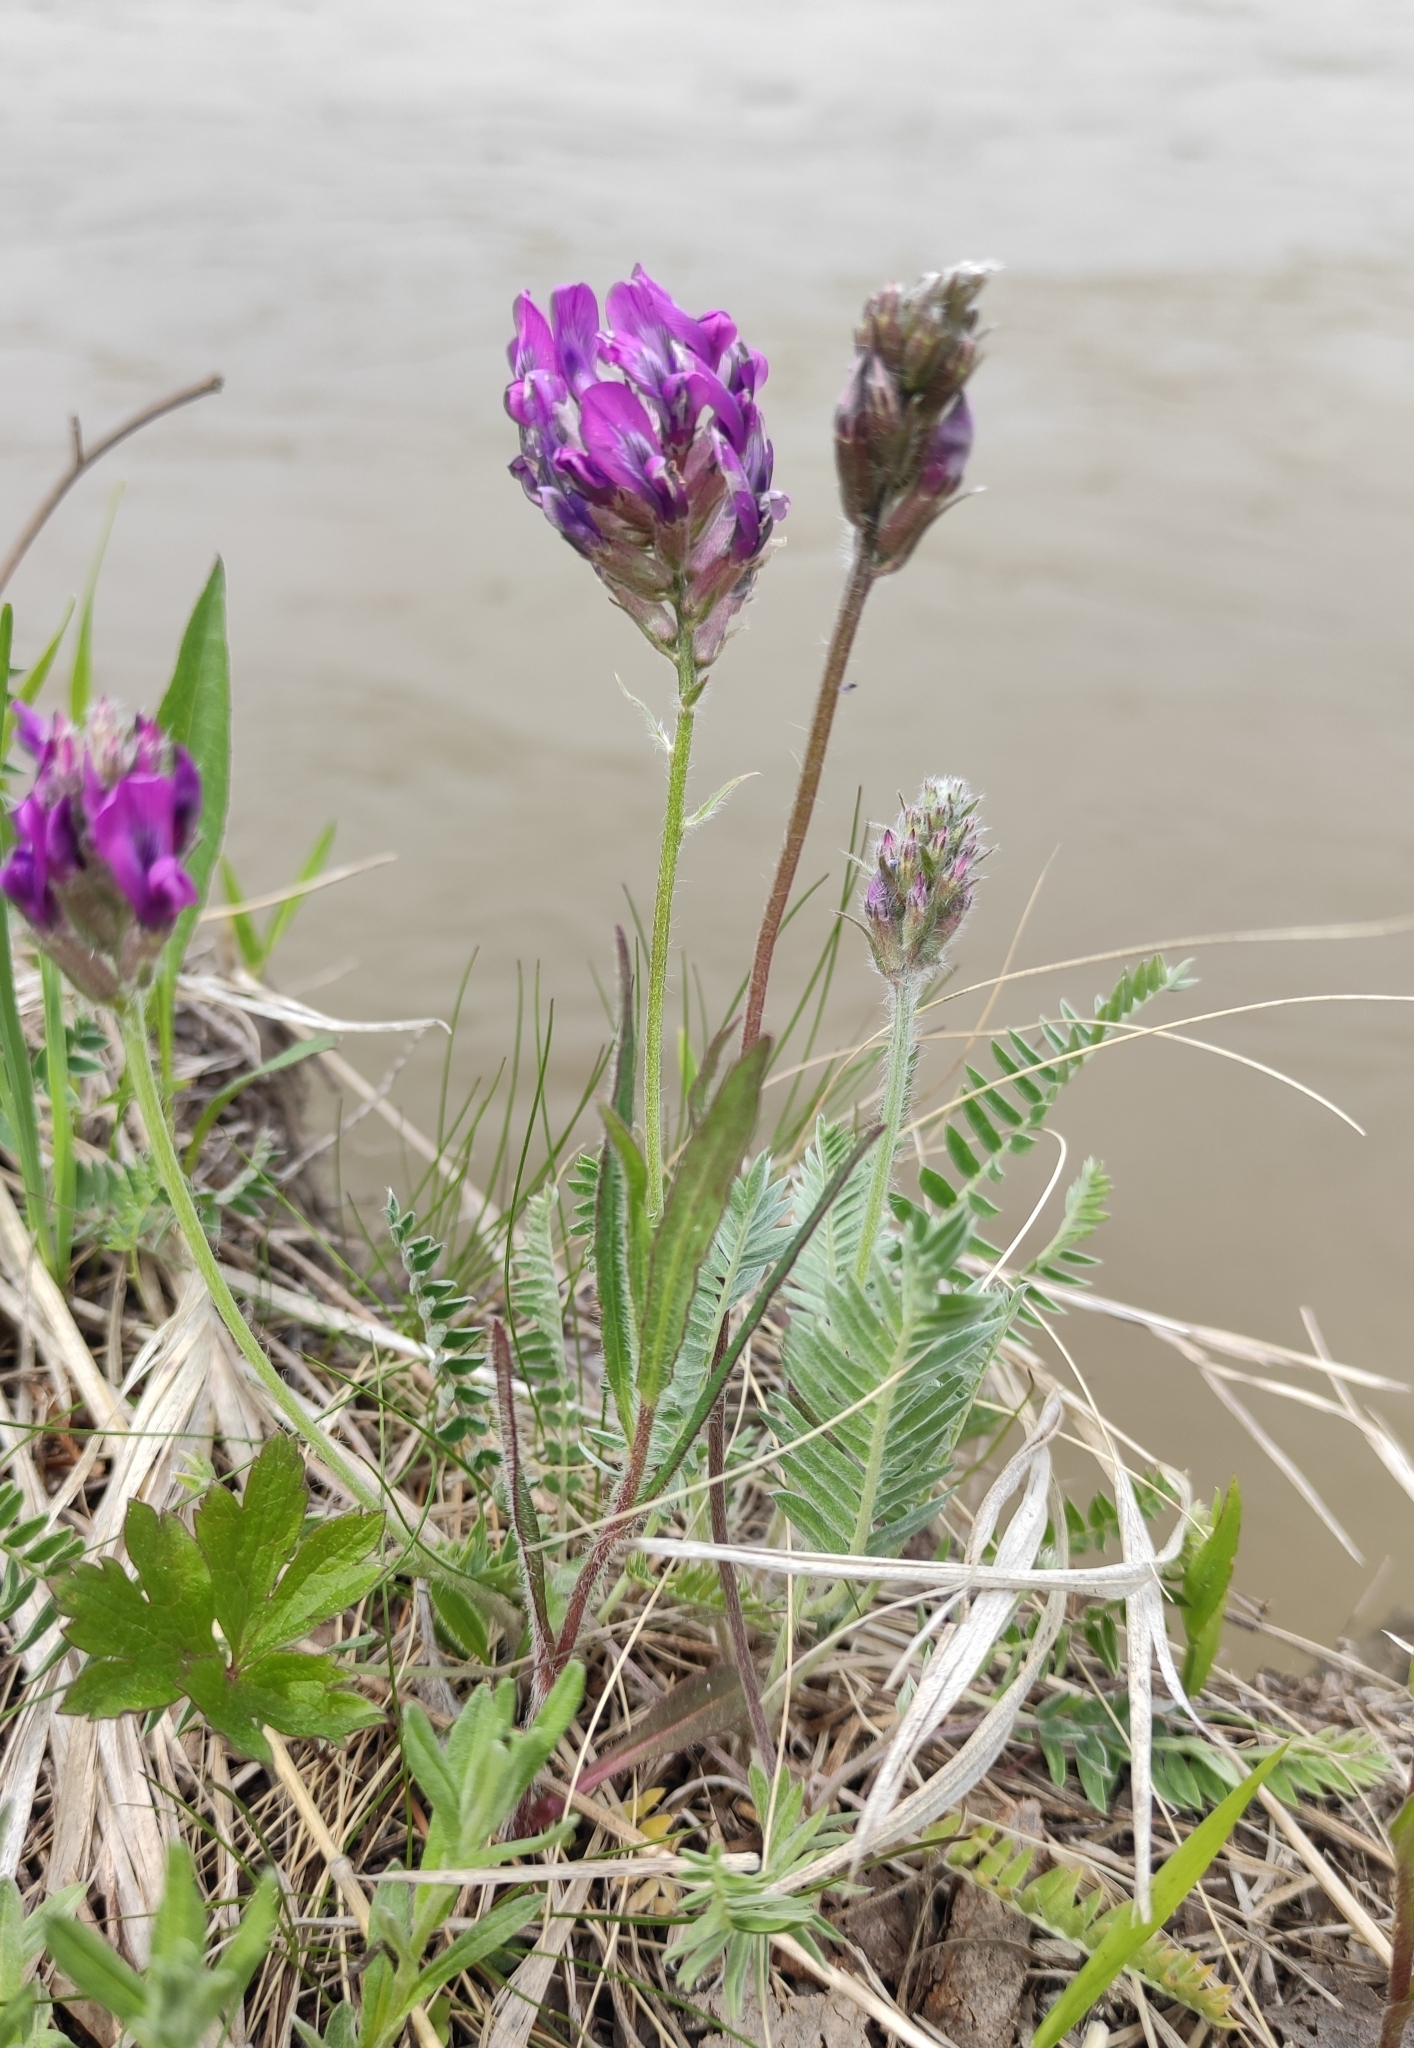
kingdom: Plantae
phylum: Tracheophyta
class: Magnoliopsida
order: Fabales
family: Fabaceae
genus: Oxytropis
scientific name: Oxytropis strobilacea
